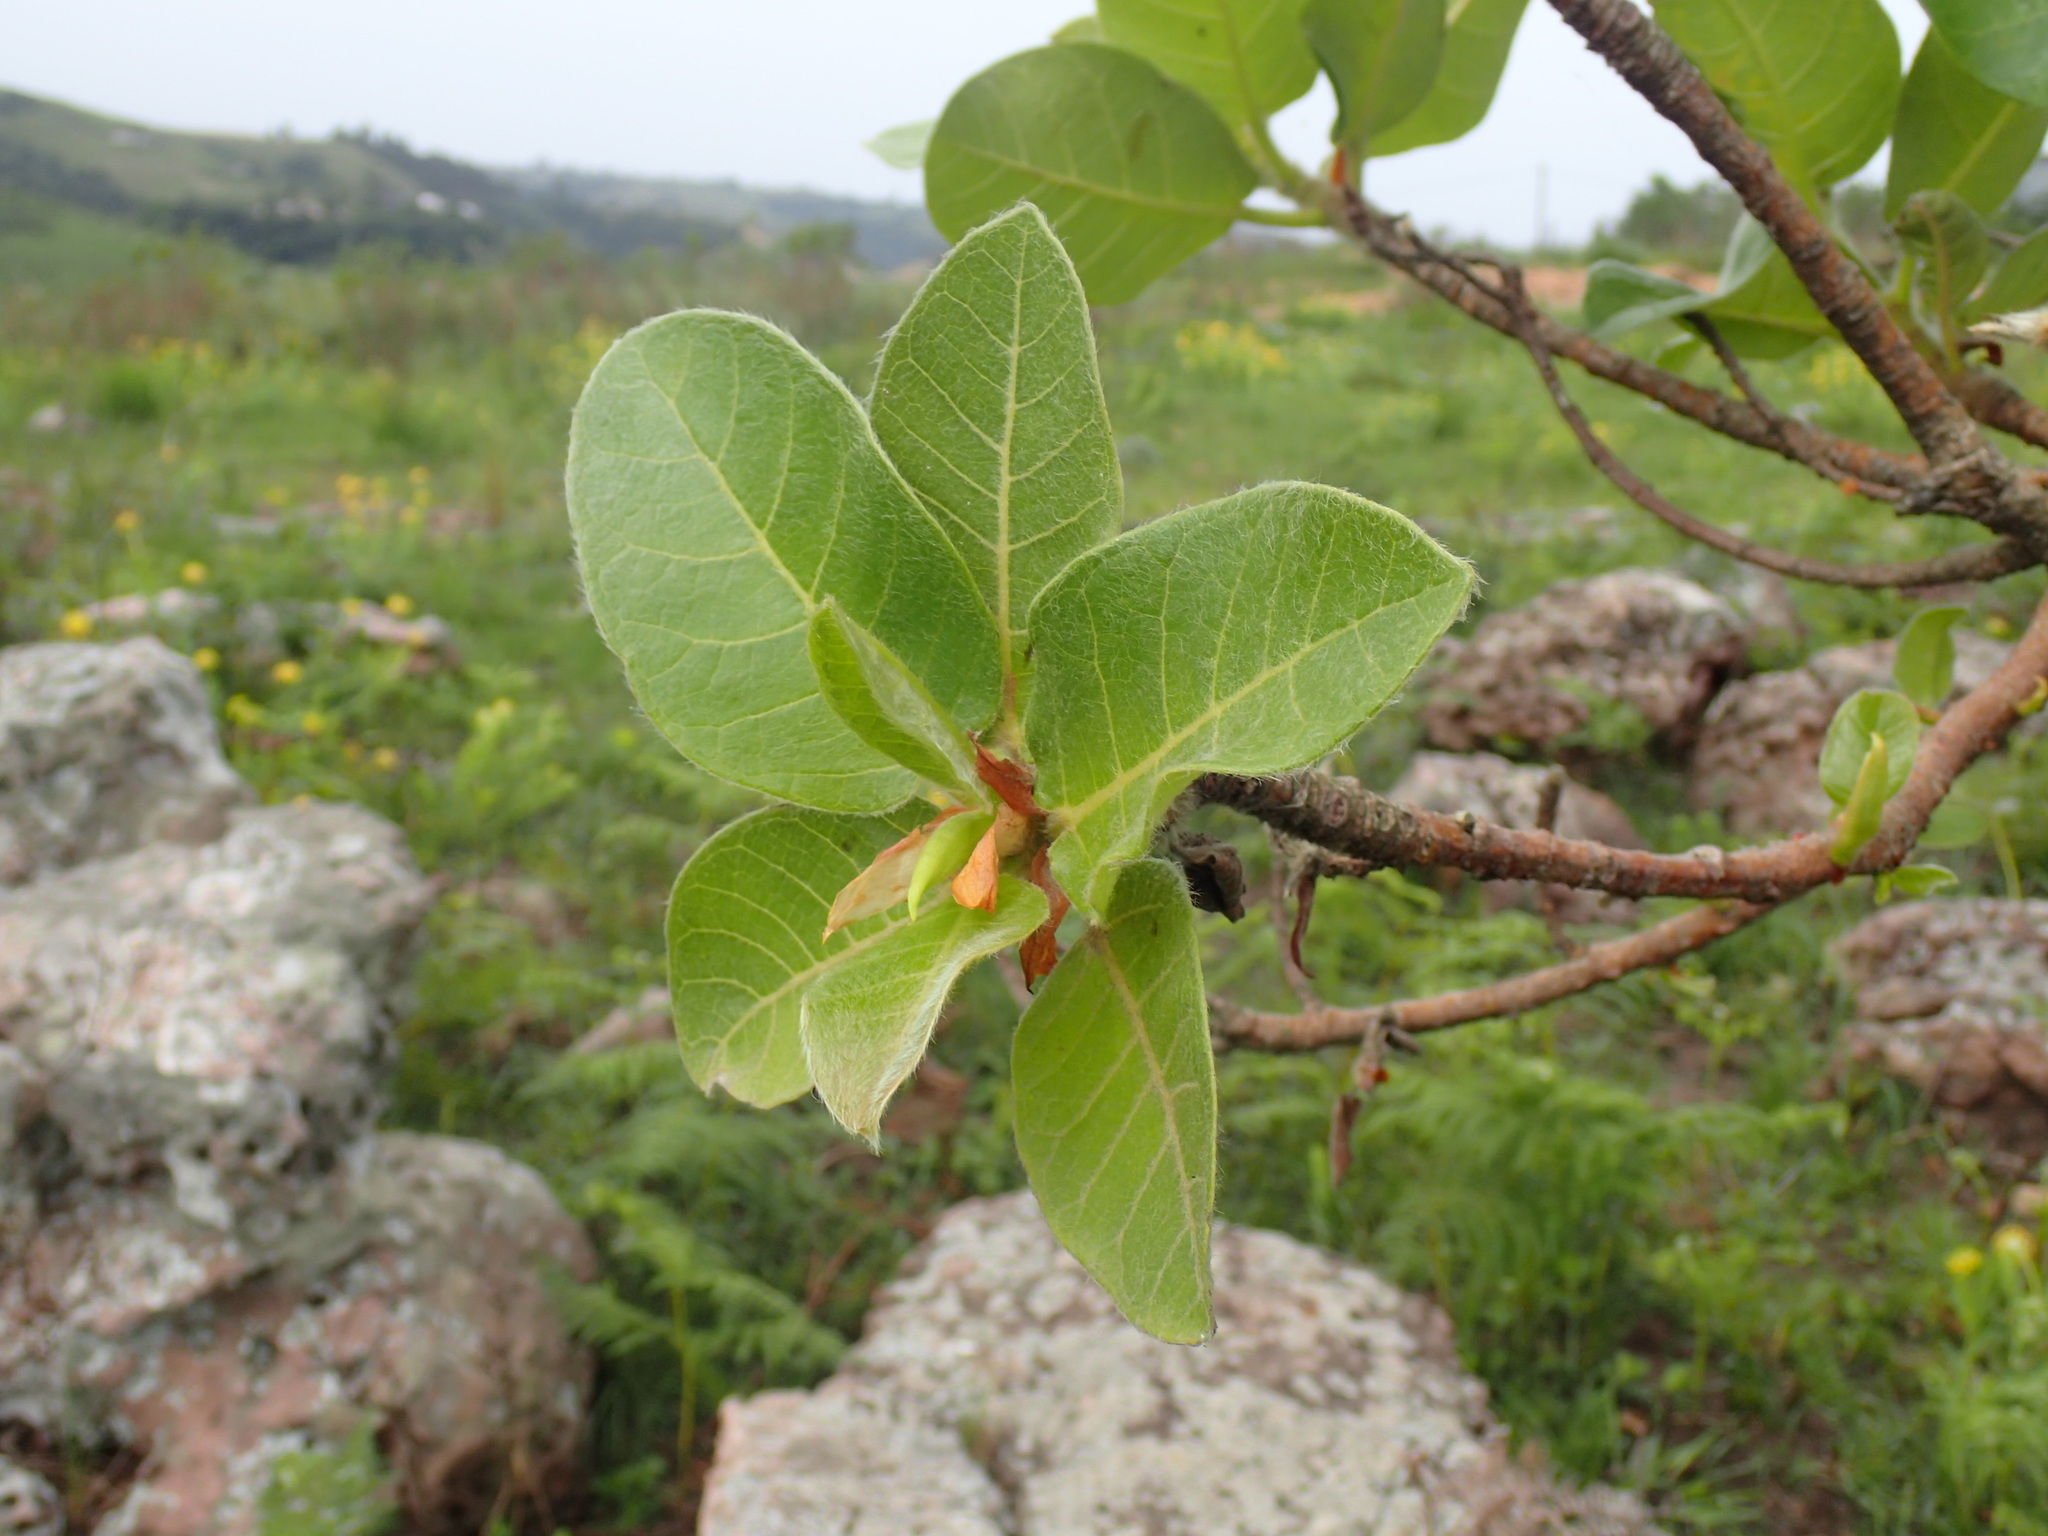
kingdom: Plantae
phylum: Tracheophyta
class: Magnoliopsida
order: Rosales
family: Moraceae
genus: Ficus
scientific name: Ficus glumosa
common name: Hairy rock fig
